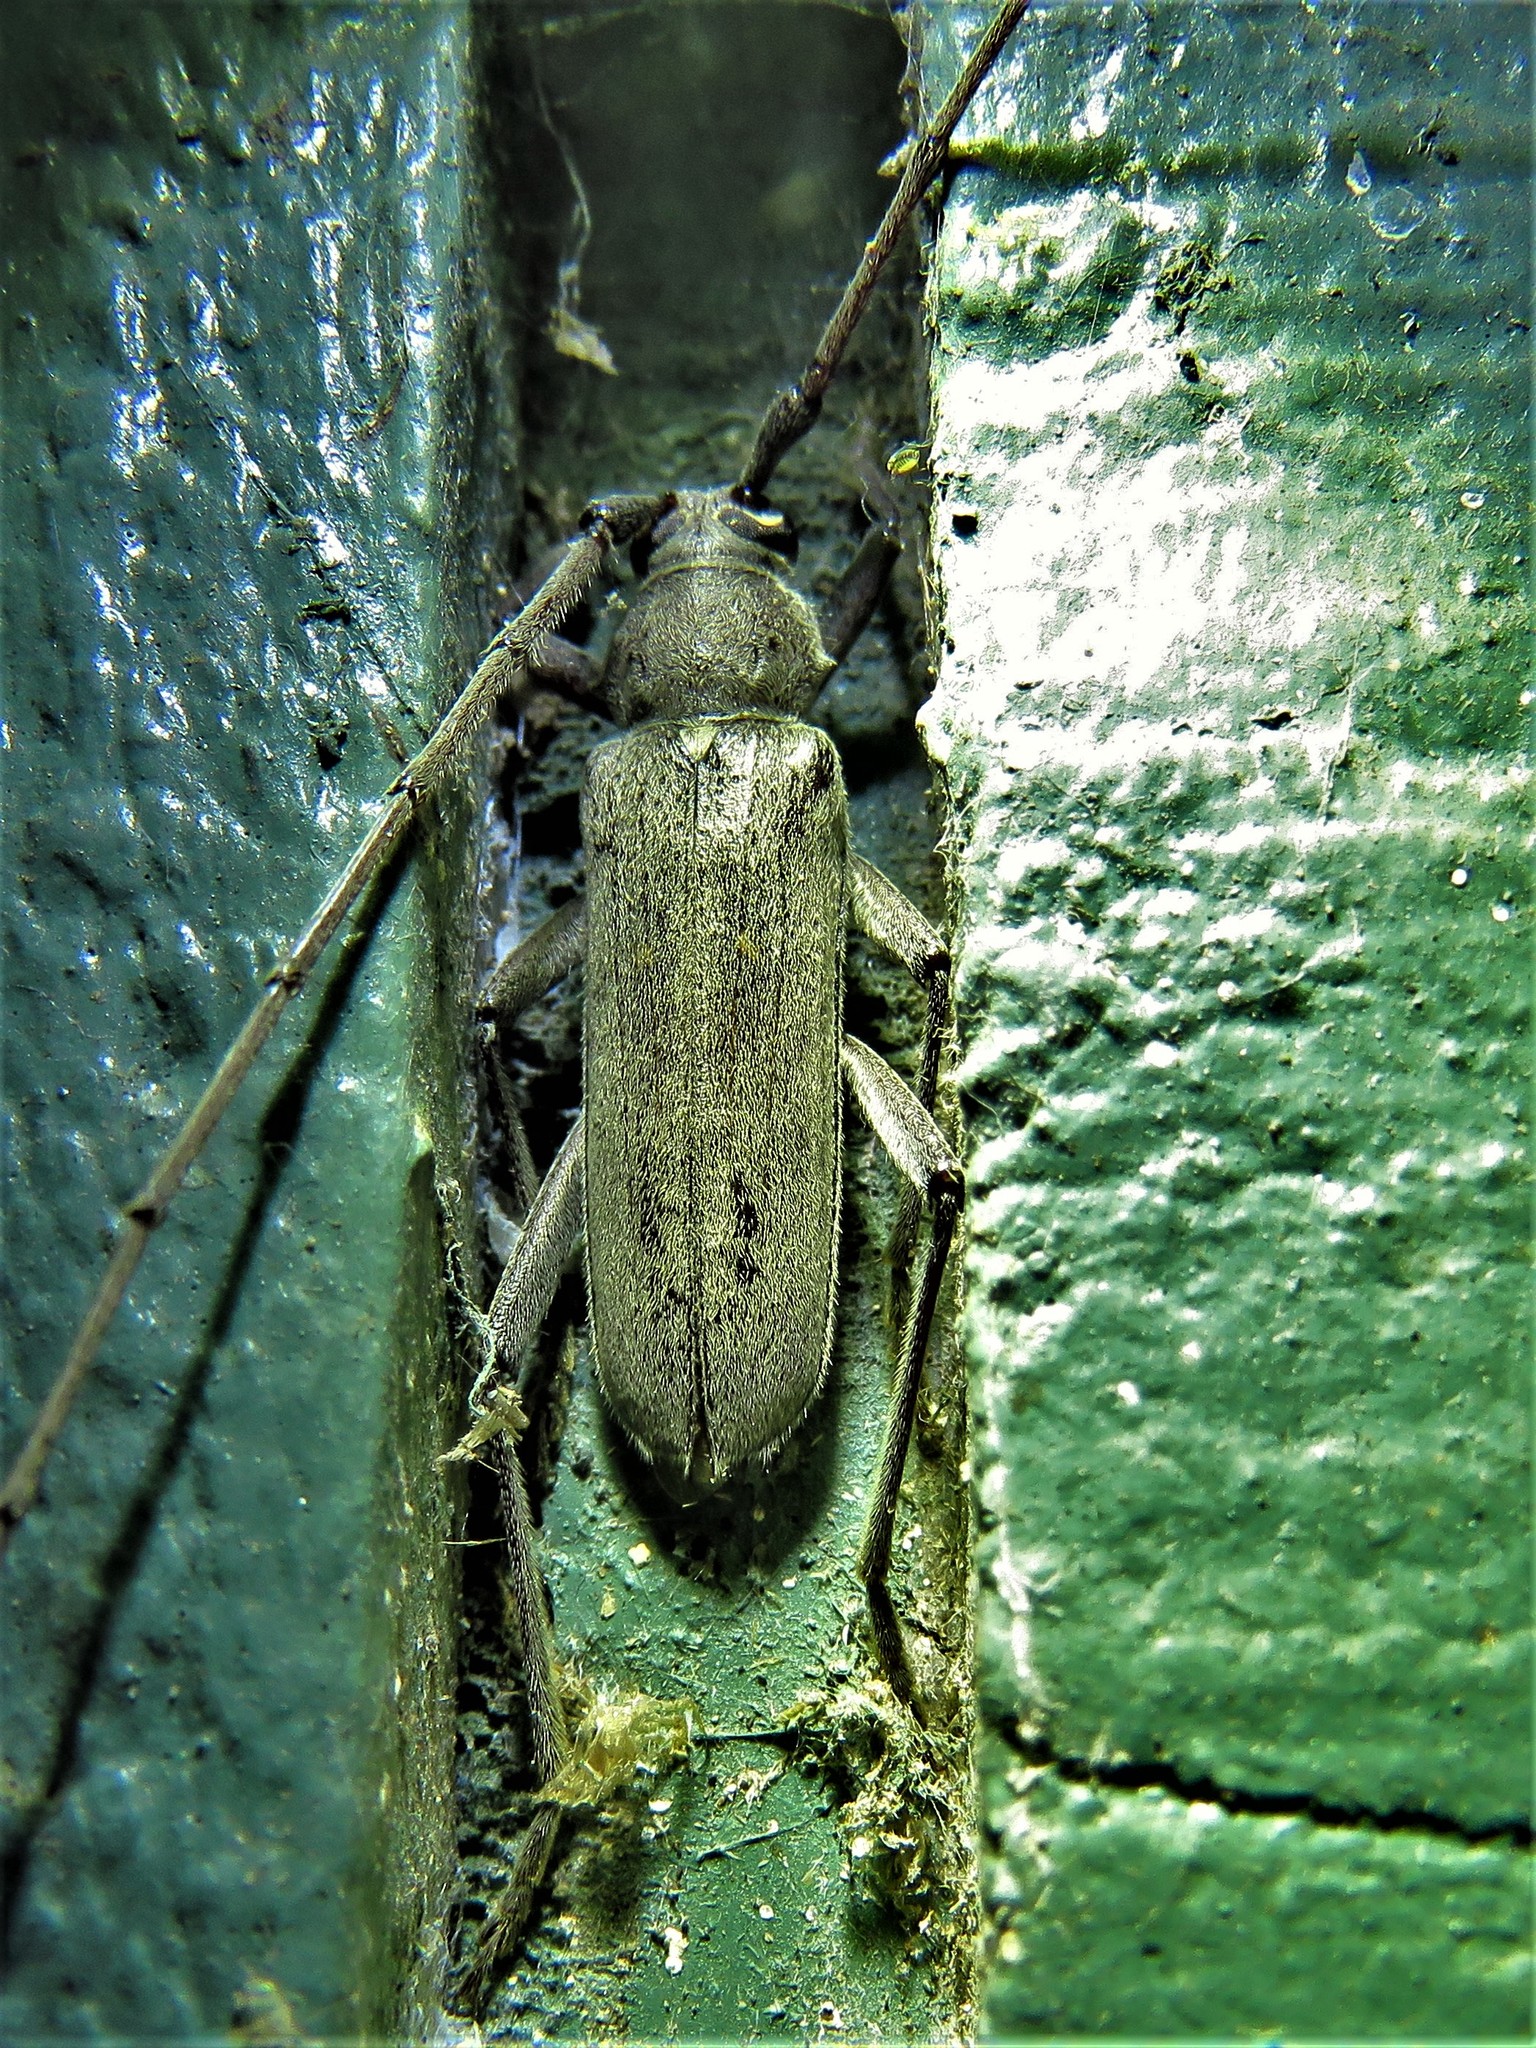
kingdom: Animalia
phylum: Arthropoda
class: Insecta
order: Coleoptera
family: Cerambycidae
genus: Knulliana
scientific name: Knulliana cincta
